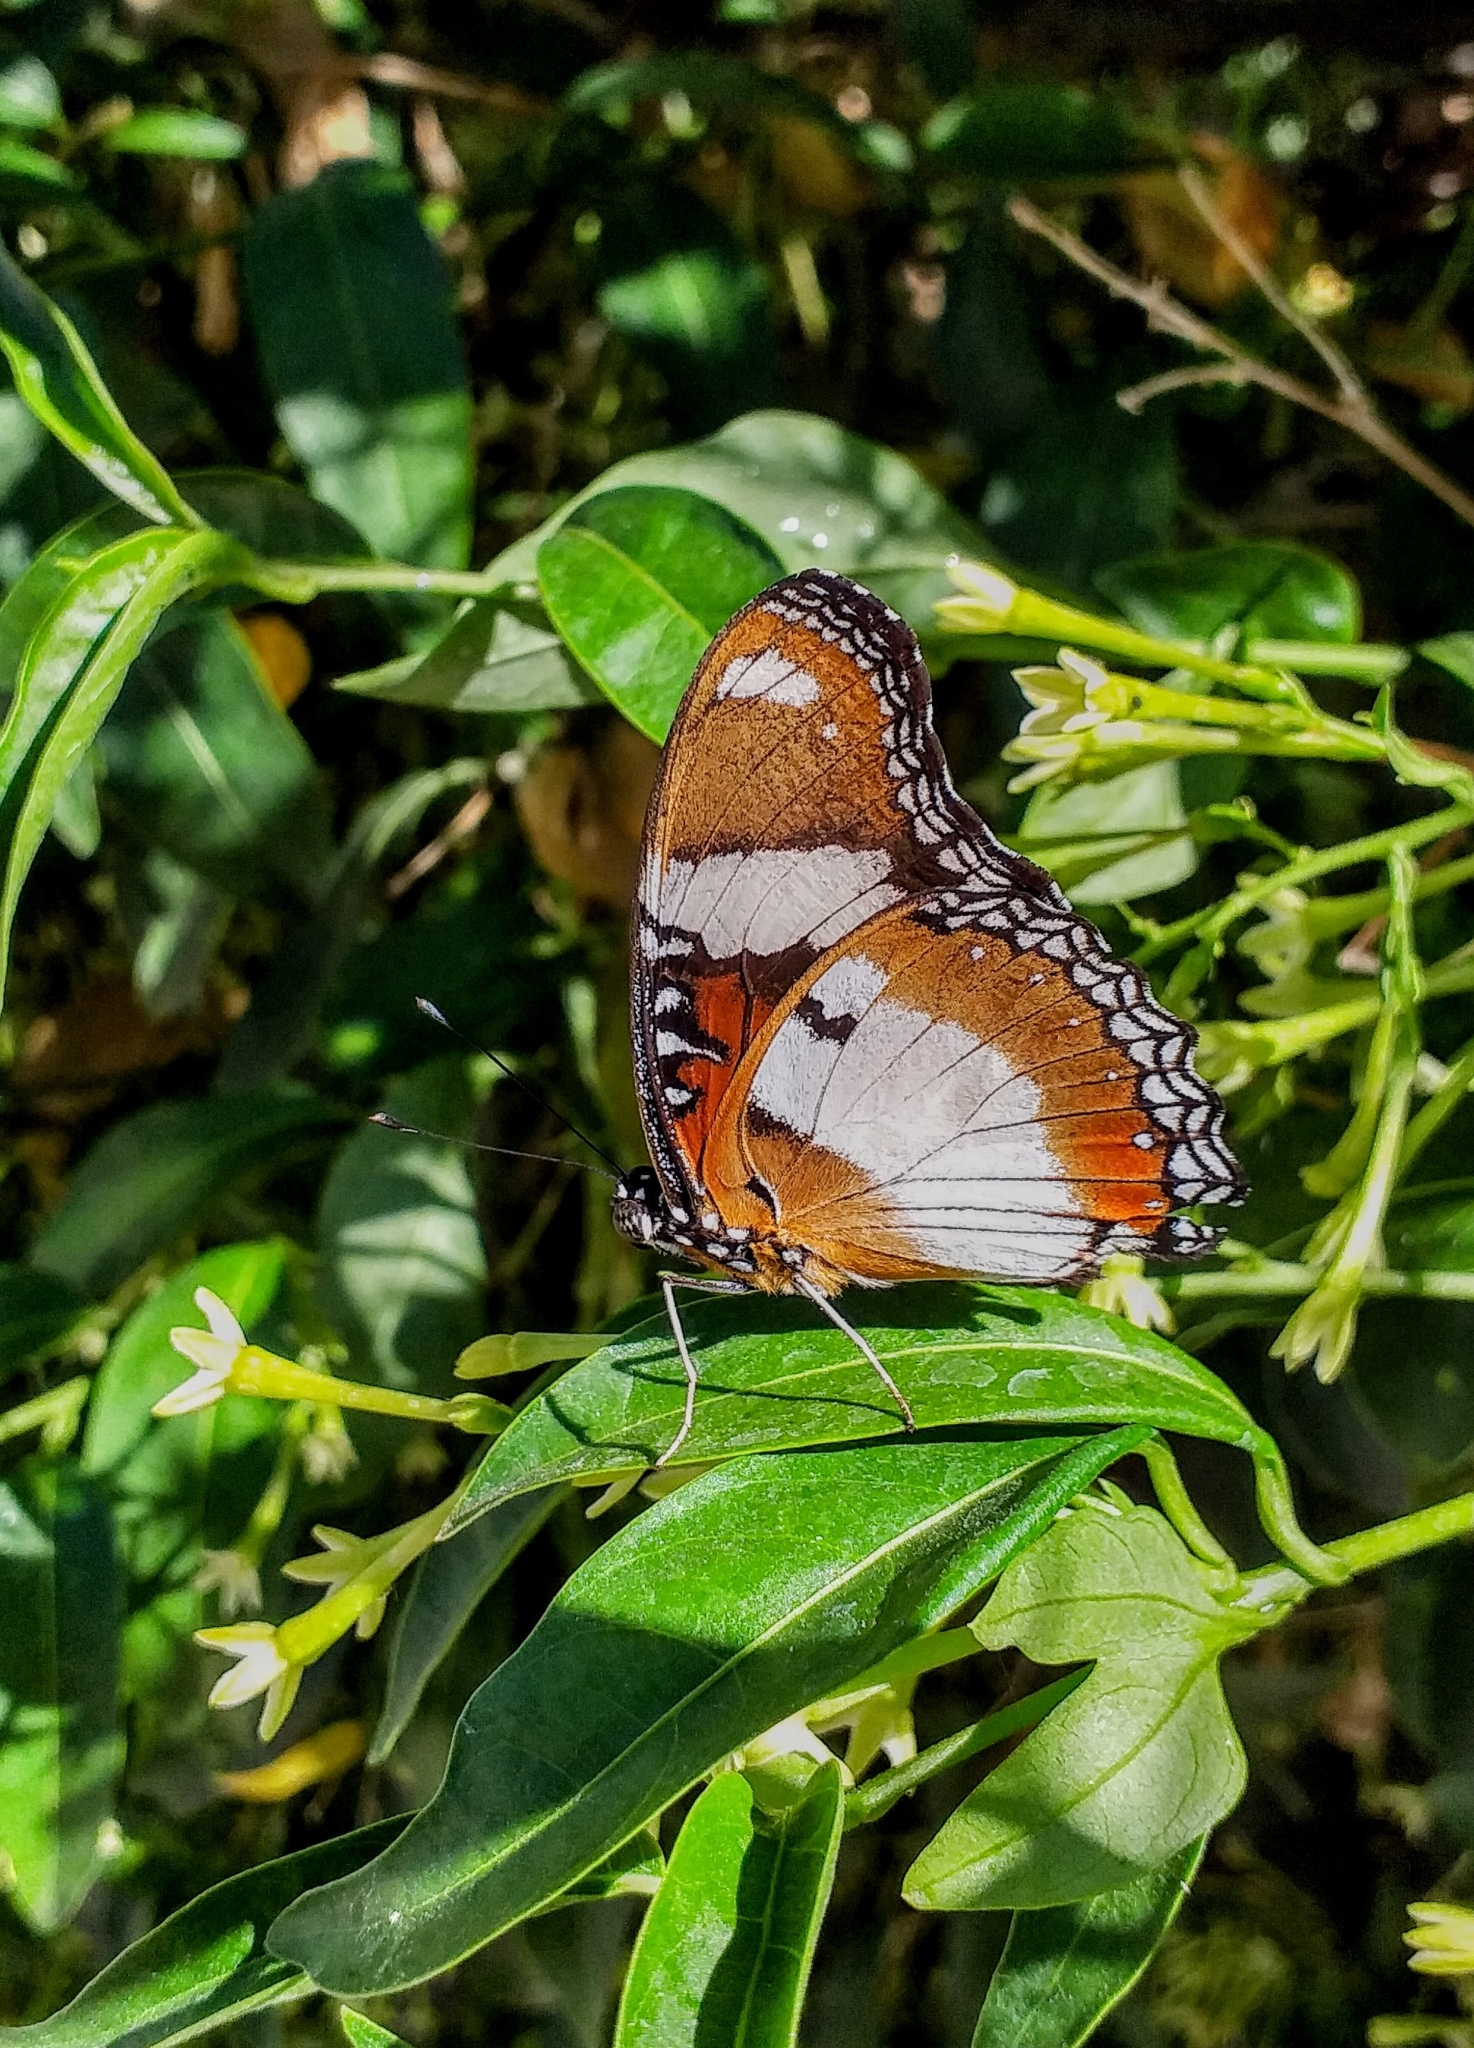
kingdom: Animalia
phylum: Arthropoda
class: Insecta
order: Lepidoptera
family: Nymphalidae
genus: Hypolimnas
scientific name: Hypolimnas misippus
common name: False plain tiger
